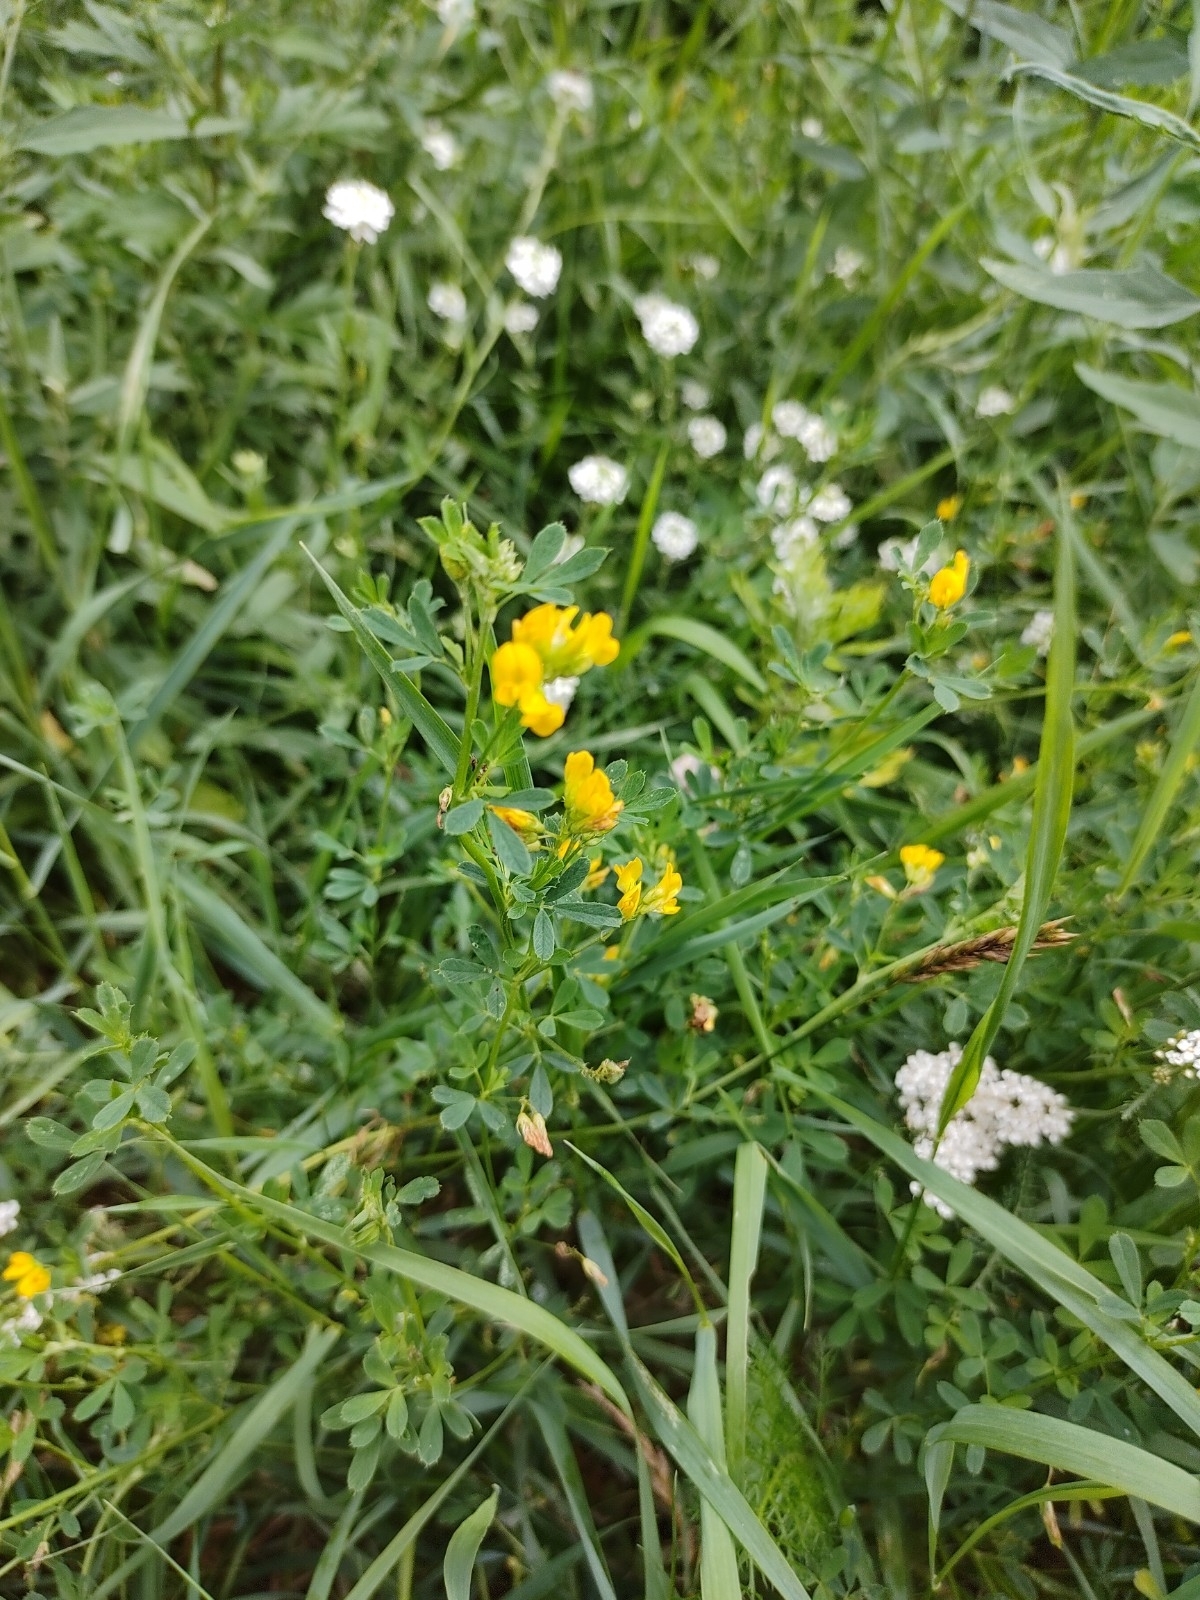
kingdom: Plantae
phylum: Tracheophyta
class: Magnoliopsida
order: Fabales
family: Fabaceae
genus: Medicago
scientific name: Medicago falcata
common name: Sickle medick
